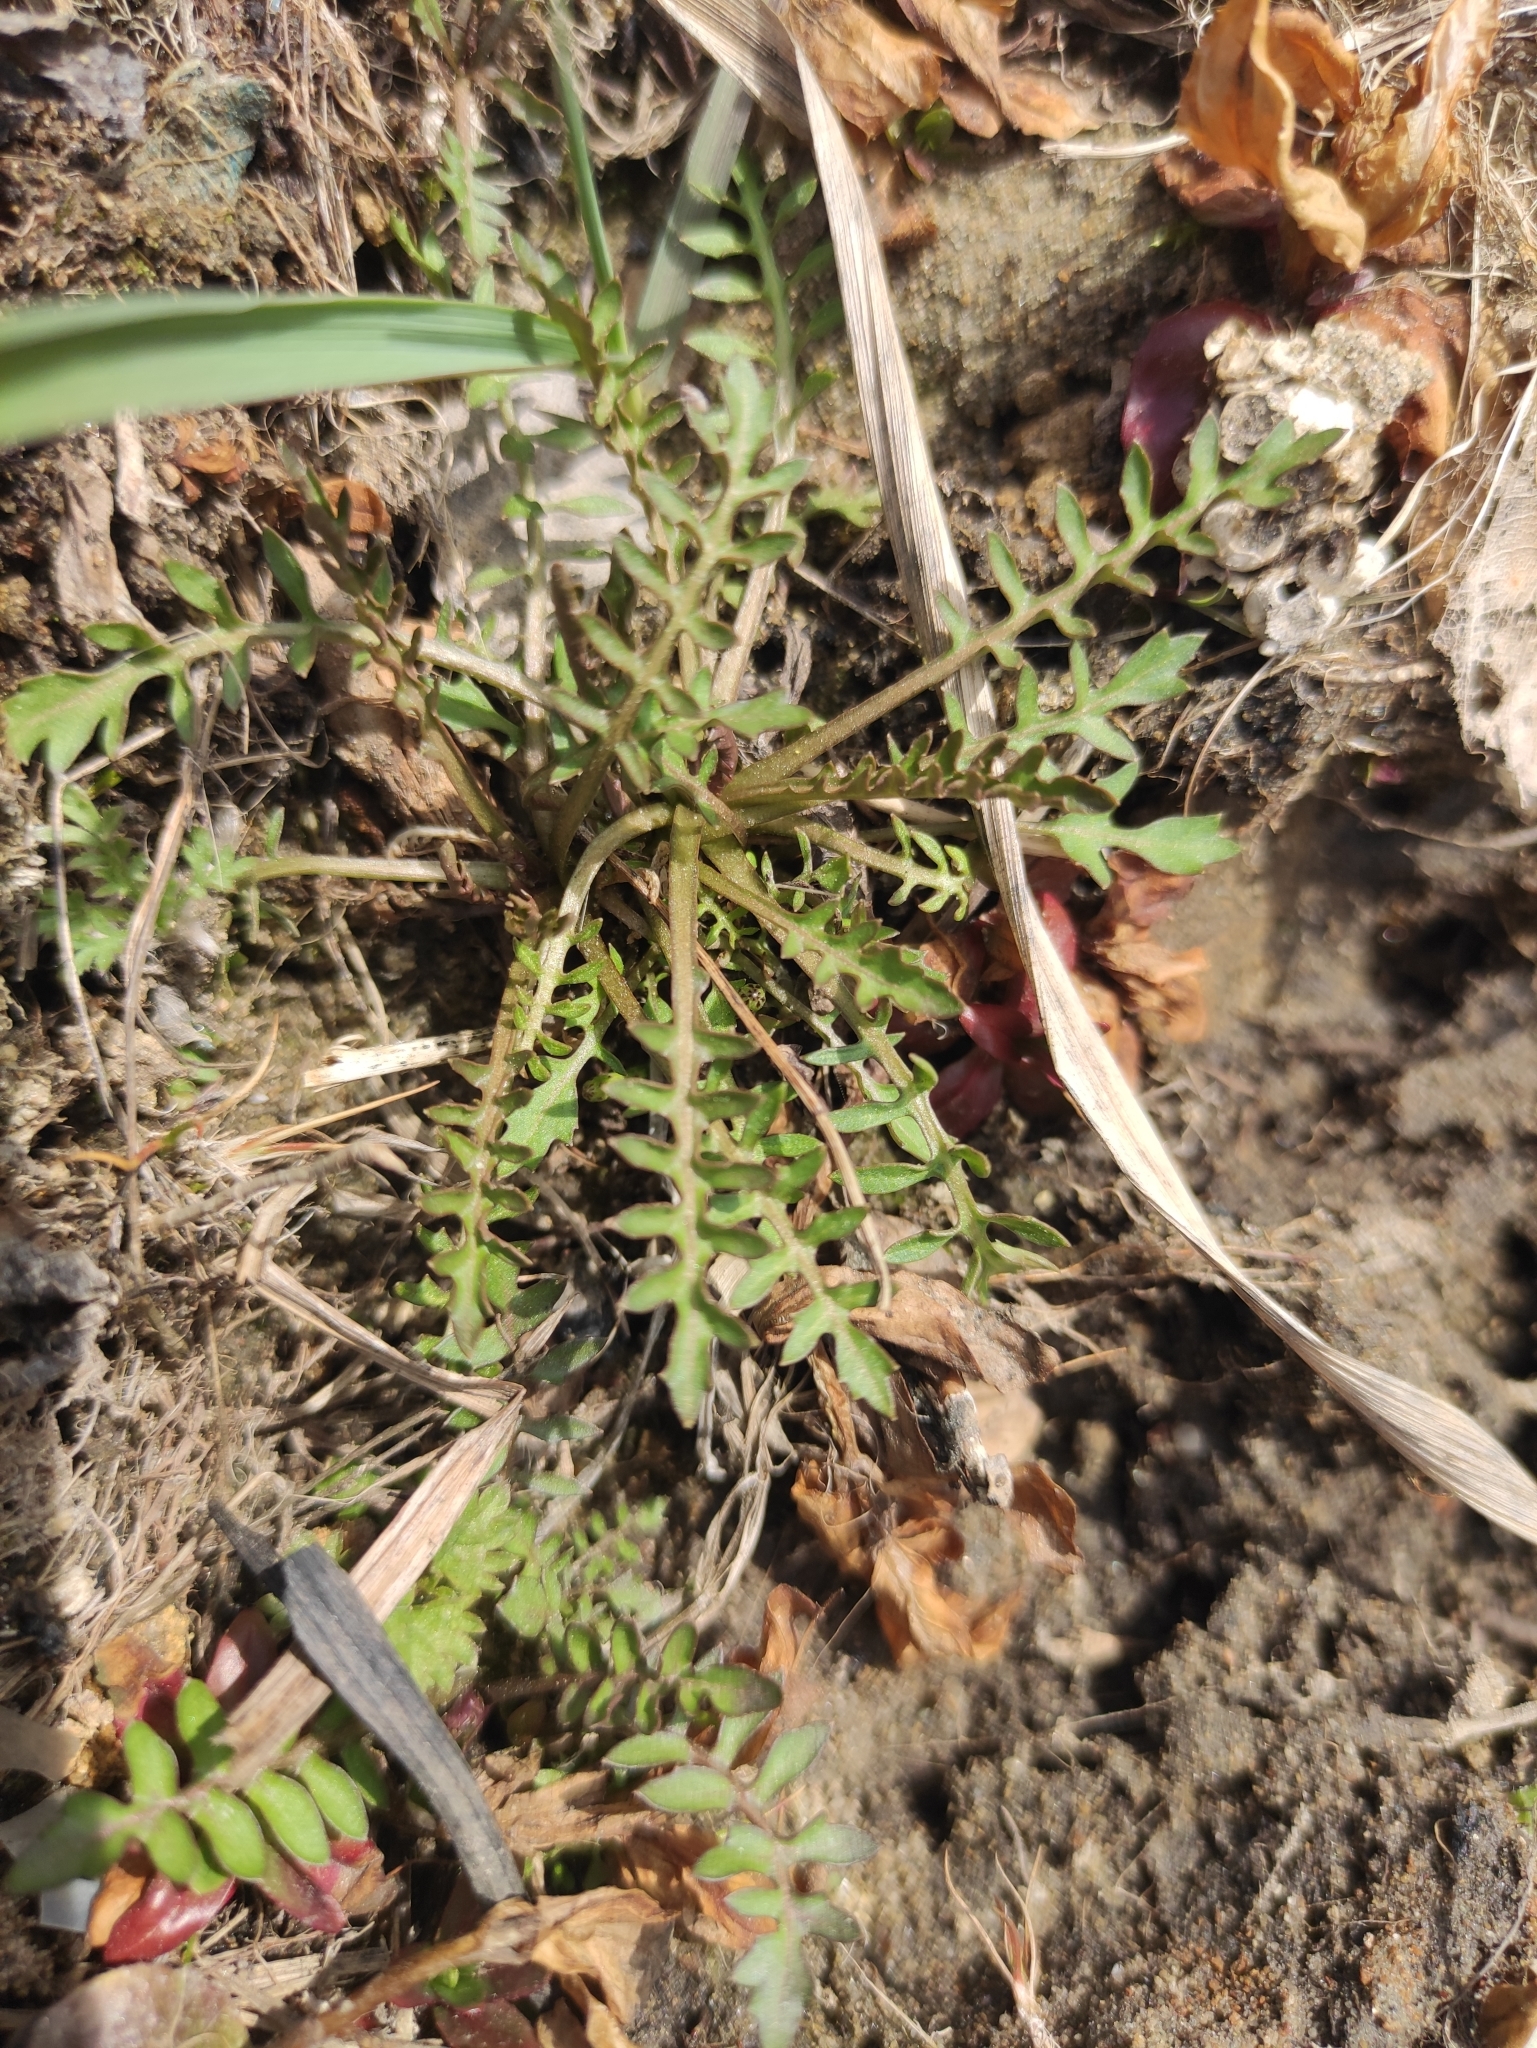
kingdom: Plantae
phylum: Tracheophyta
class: Magnoliopsida
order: Brassicales
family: Brassicaceae
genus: Rorippa
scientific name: Rorippa palustris
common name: Marsh yellow-cress
